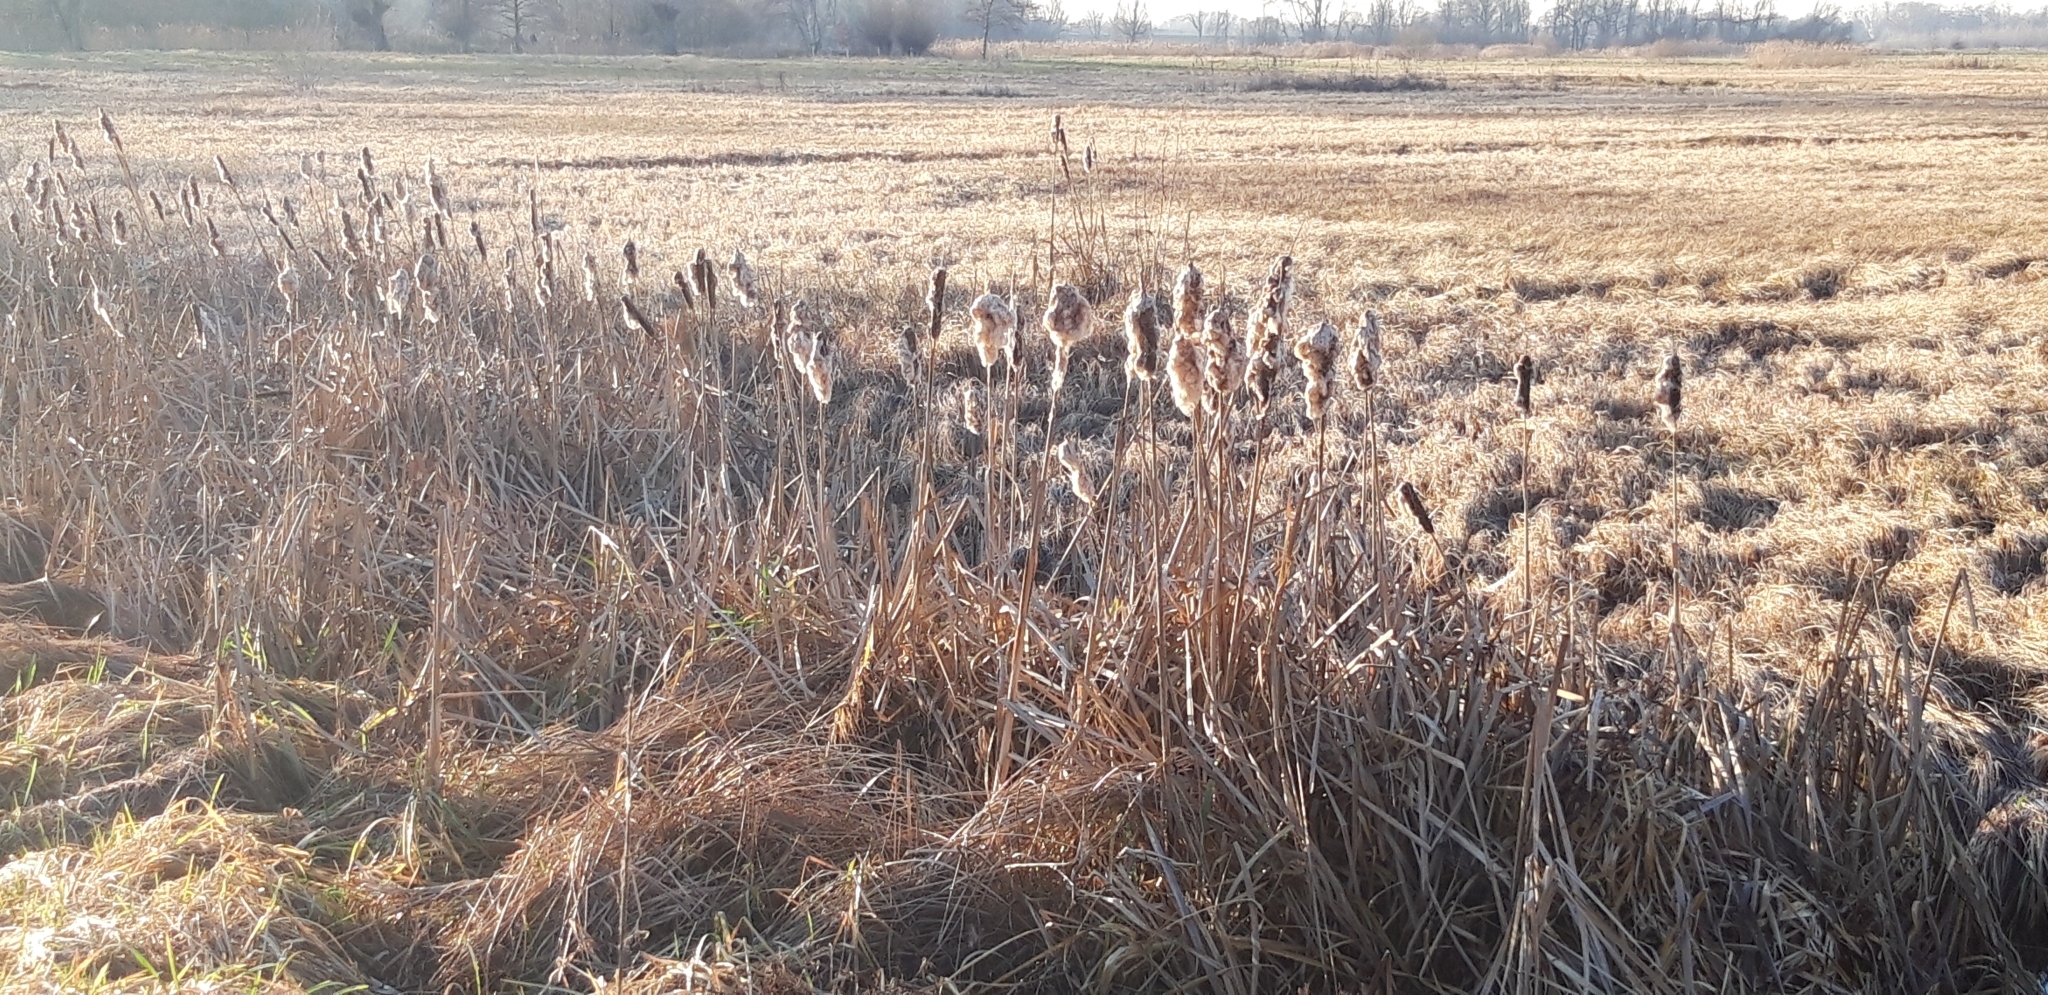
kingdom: Plantae
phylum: Tracheophyta
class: Liliopsida
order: Poales
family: Typhaceae
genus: Typha
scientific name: Typha latifolia
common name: Broadleaf cattail
